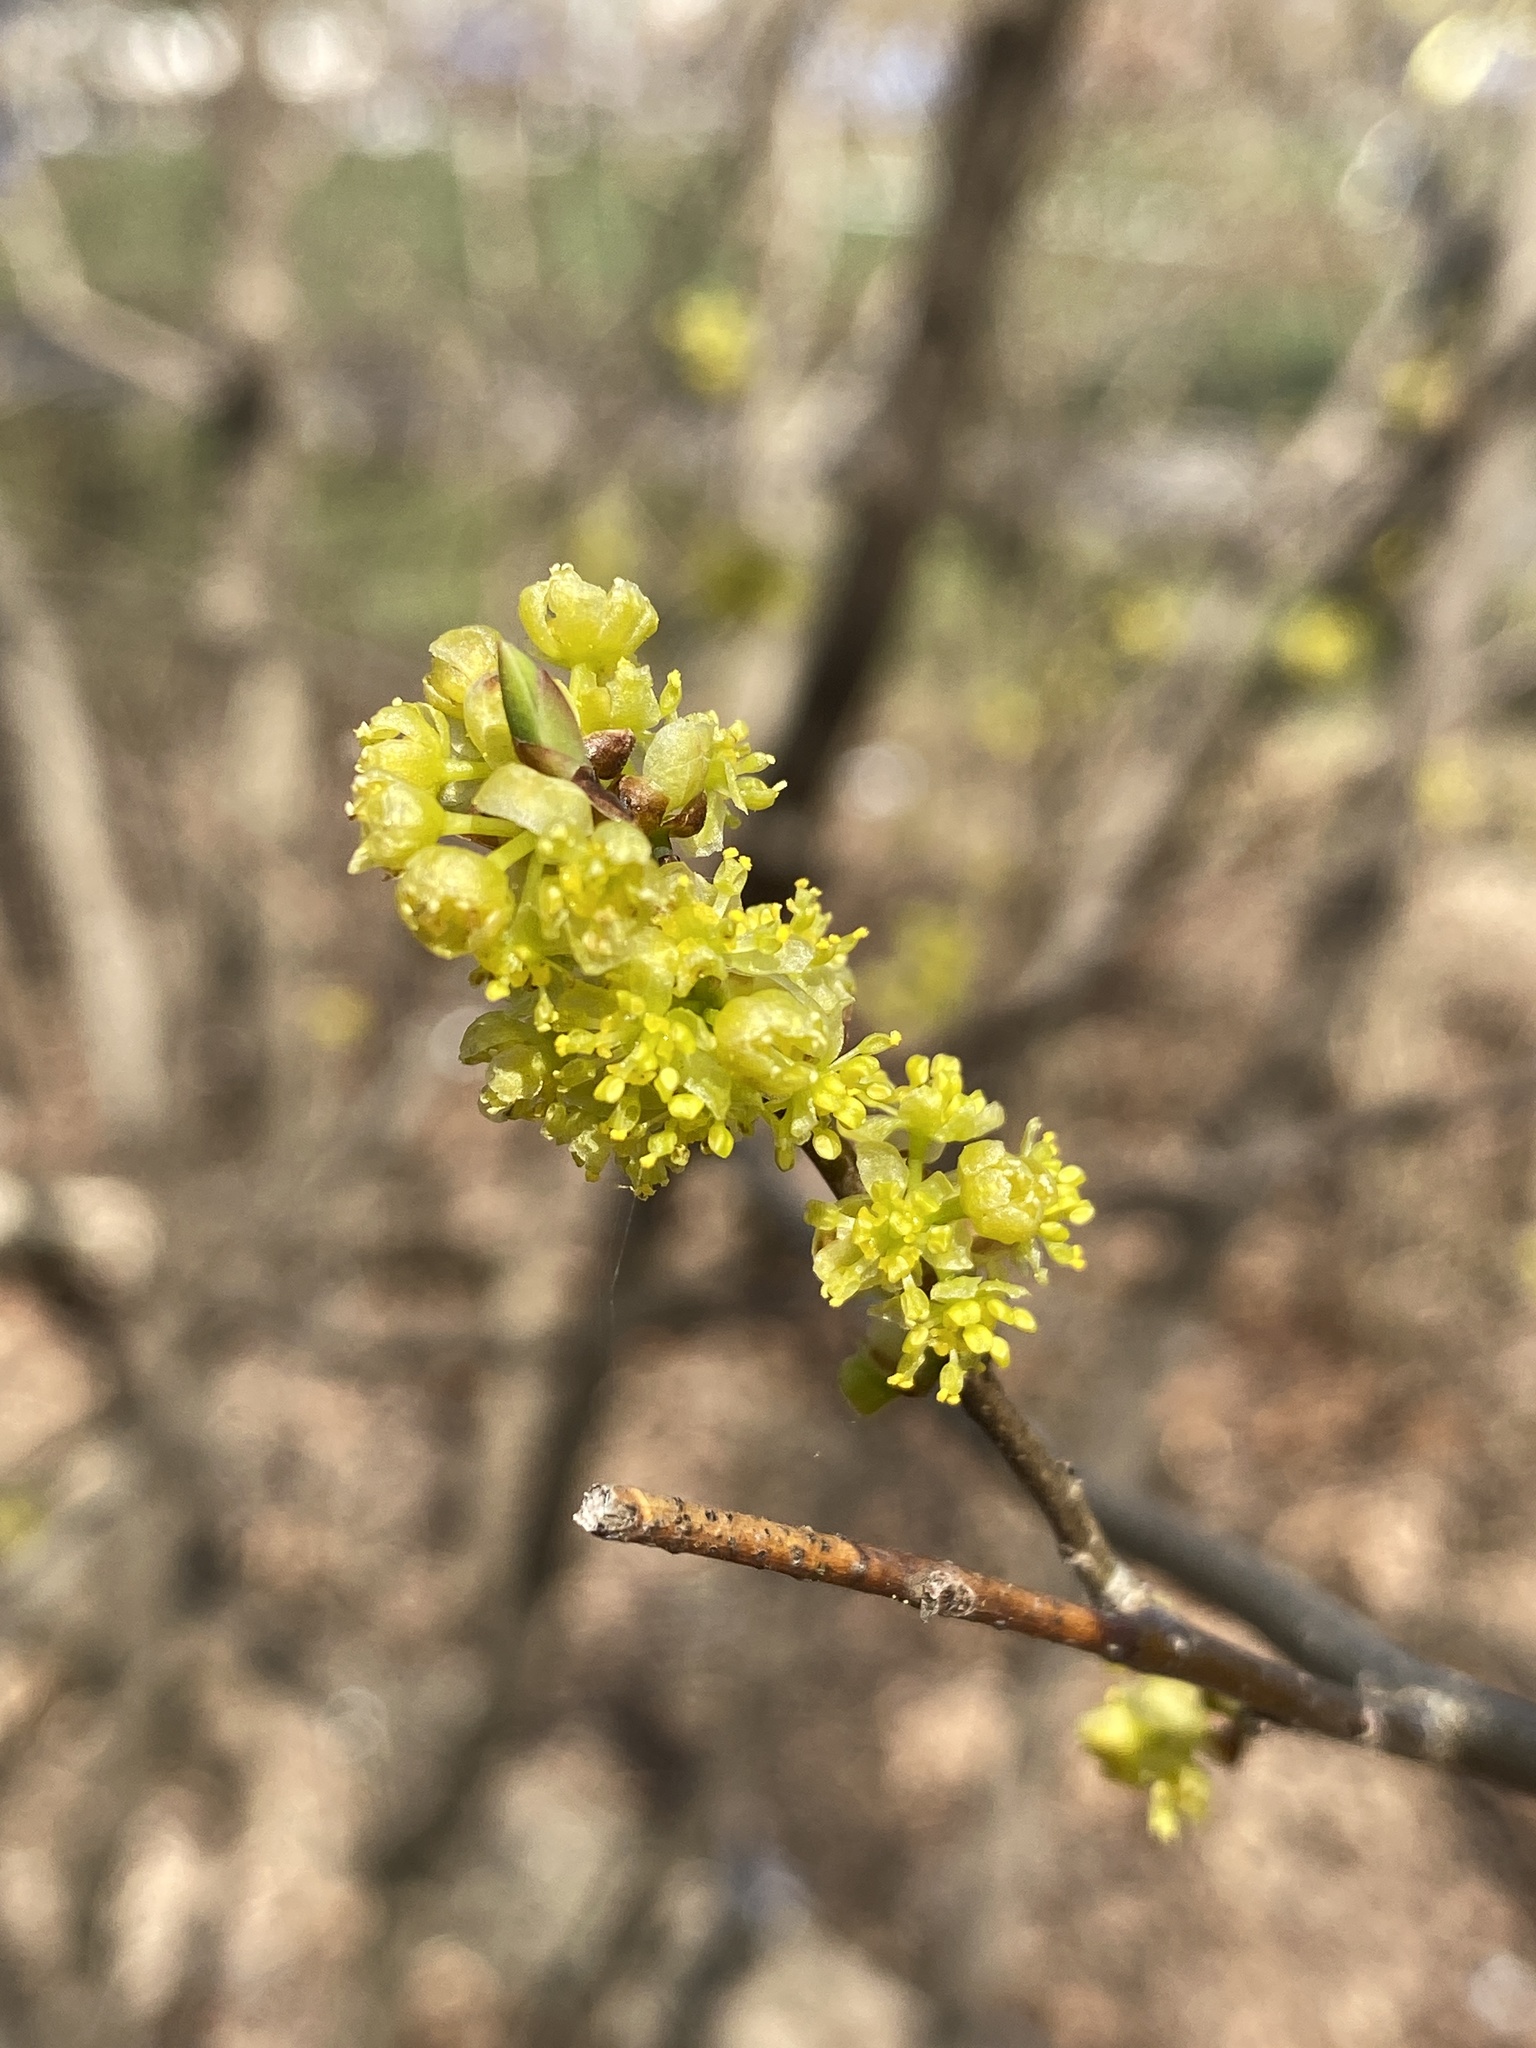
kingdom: Plantae
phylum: Tracheophyta
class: Magnoliopsida
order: Laurales
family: Lauraceae
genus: Lindera
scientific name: Lindera benzoin
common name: Spicebush
